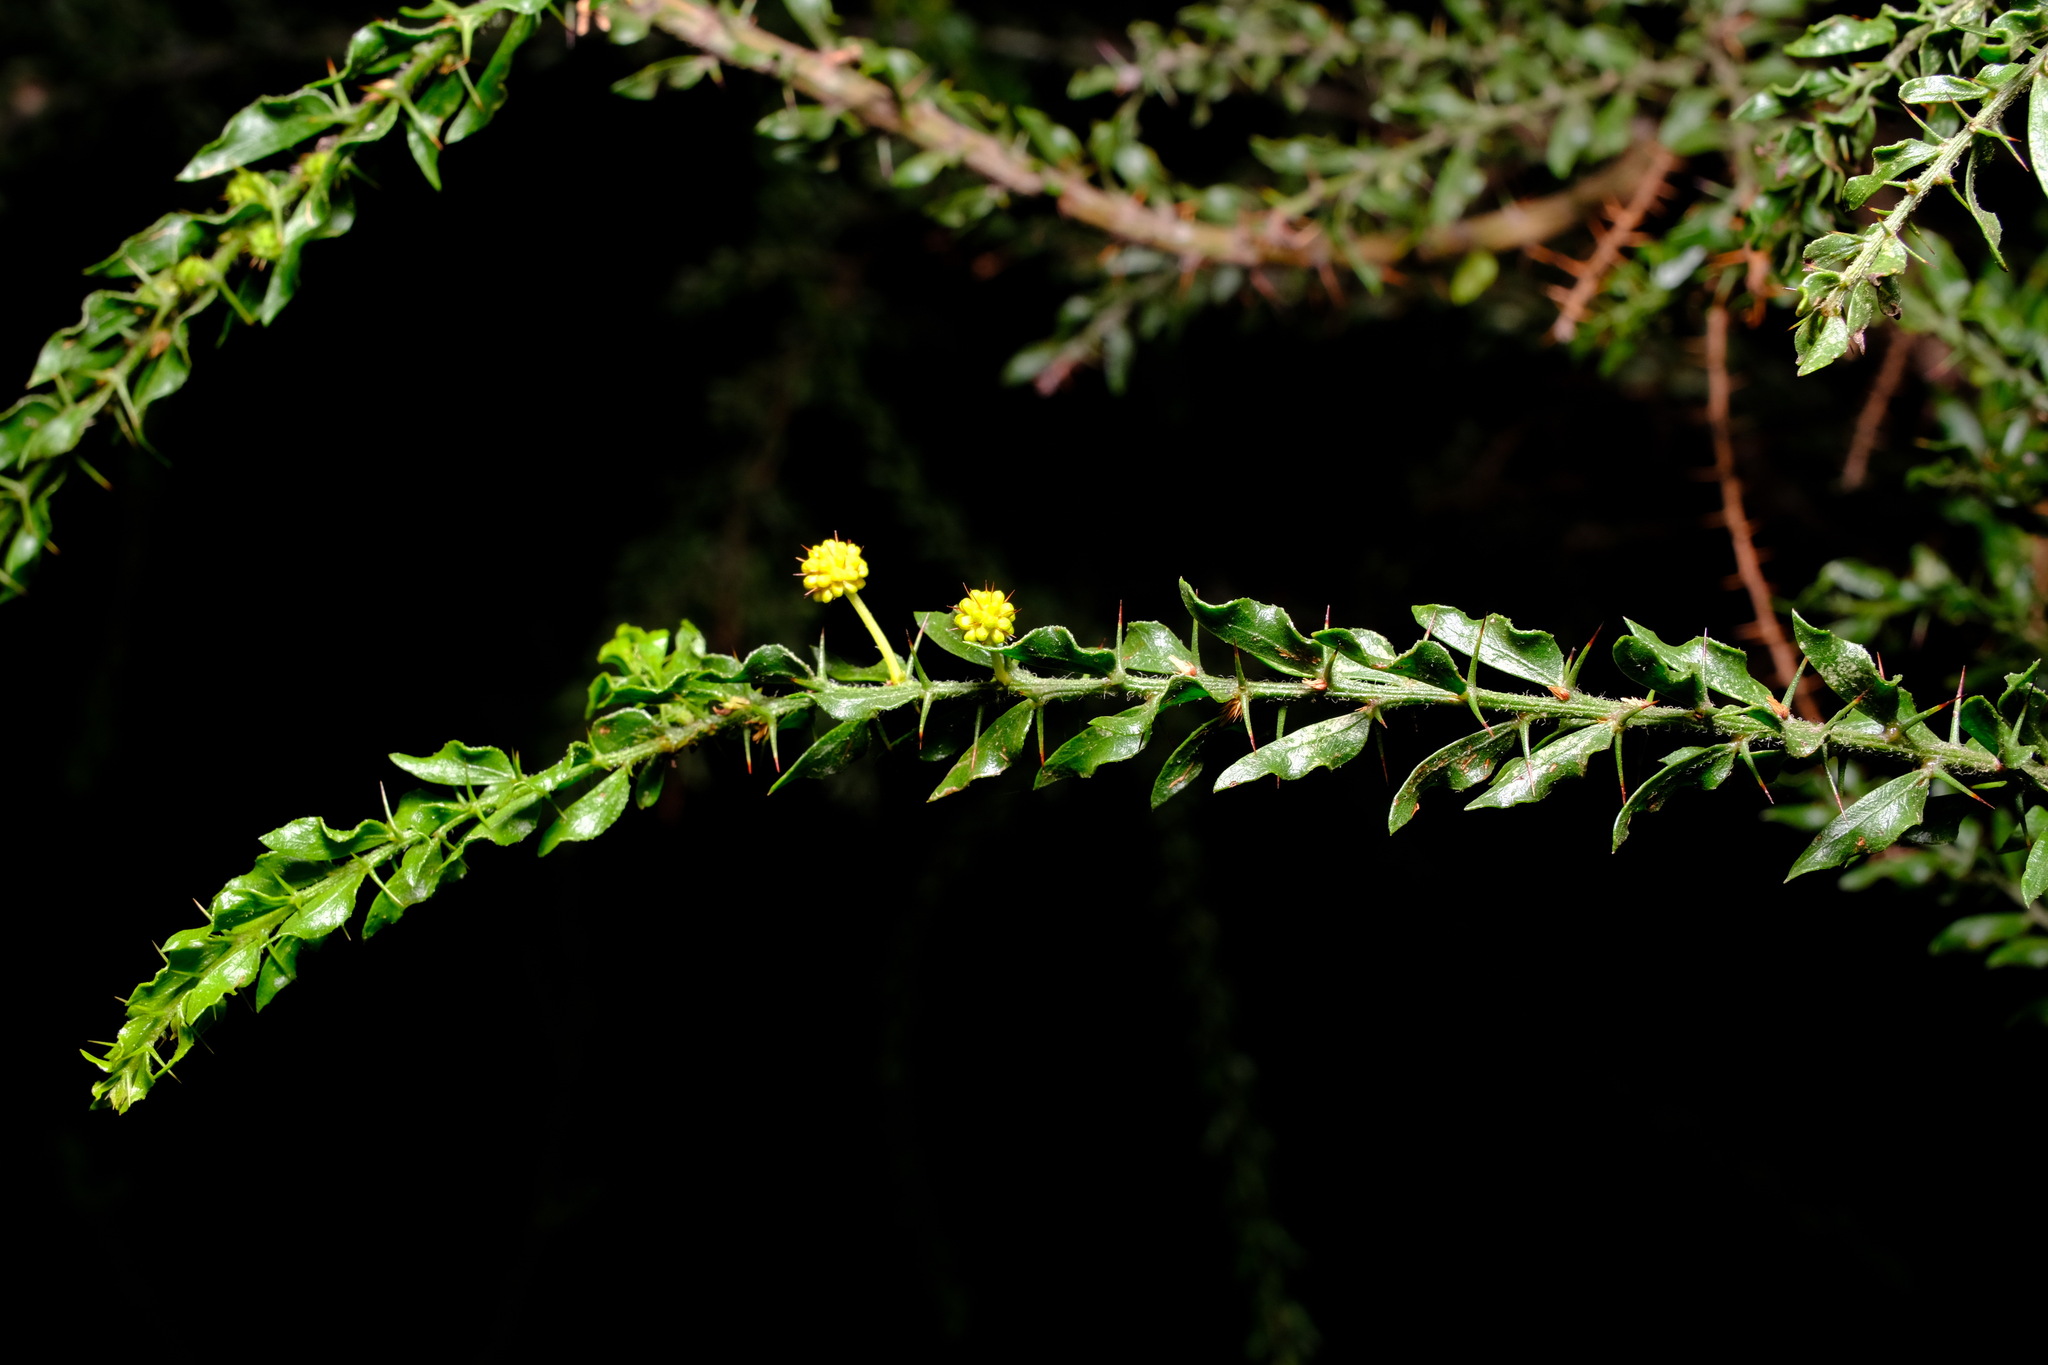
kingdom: Plantae
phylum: Tracheophyta
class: Magnoliopsida
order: Fabales
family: Fabaceae
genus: Acacia
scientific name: Acacia paradoxa
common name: Paradox acacia
